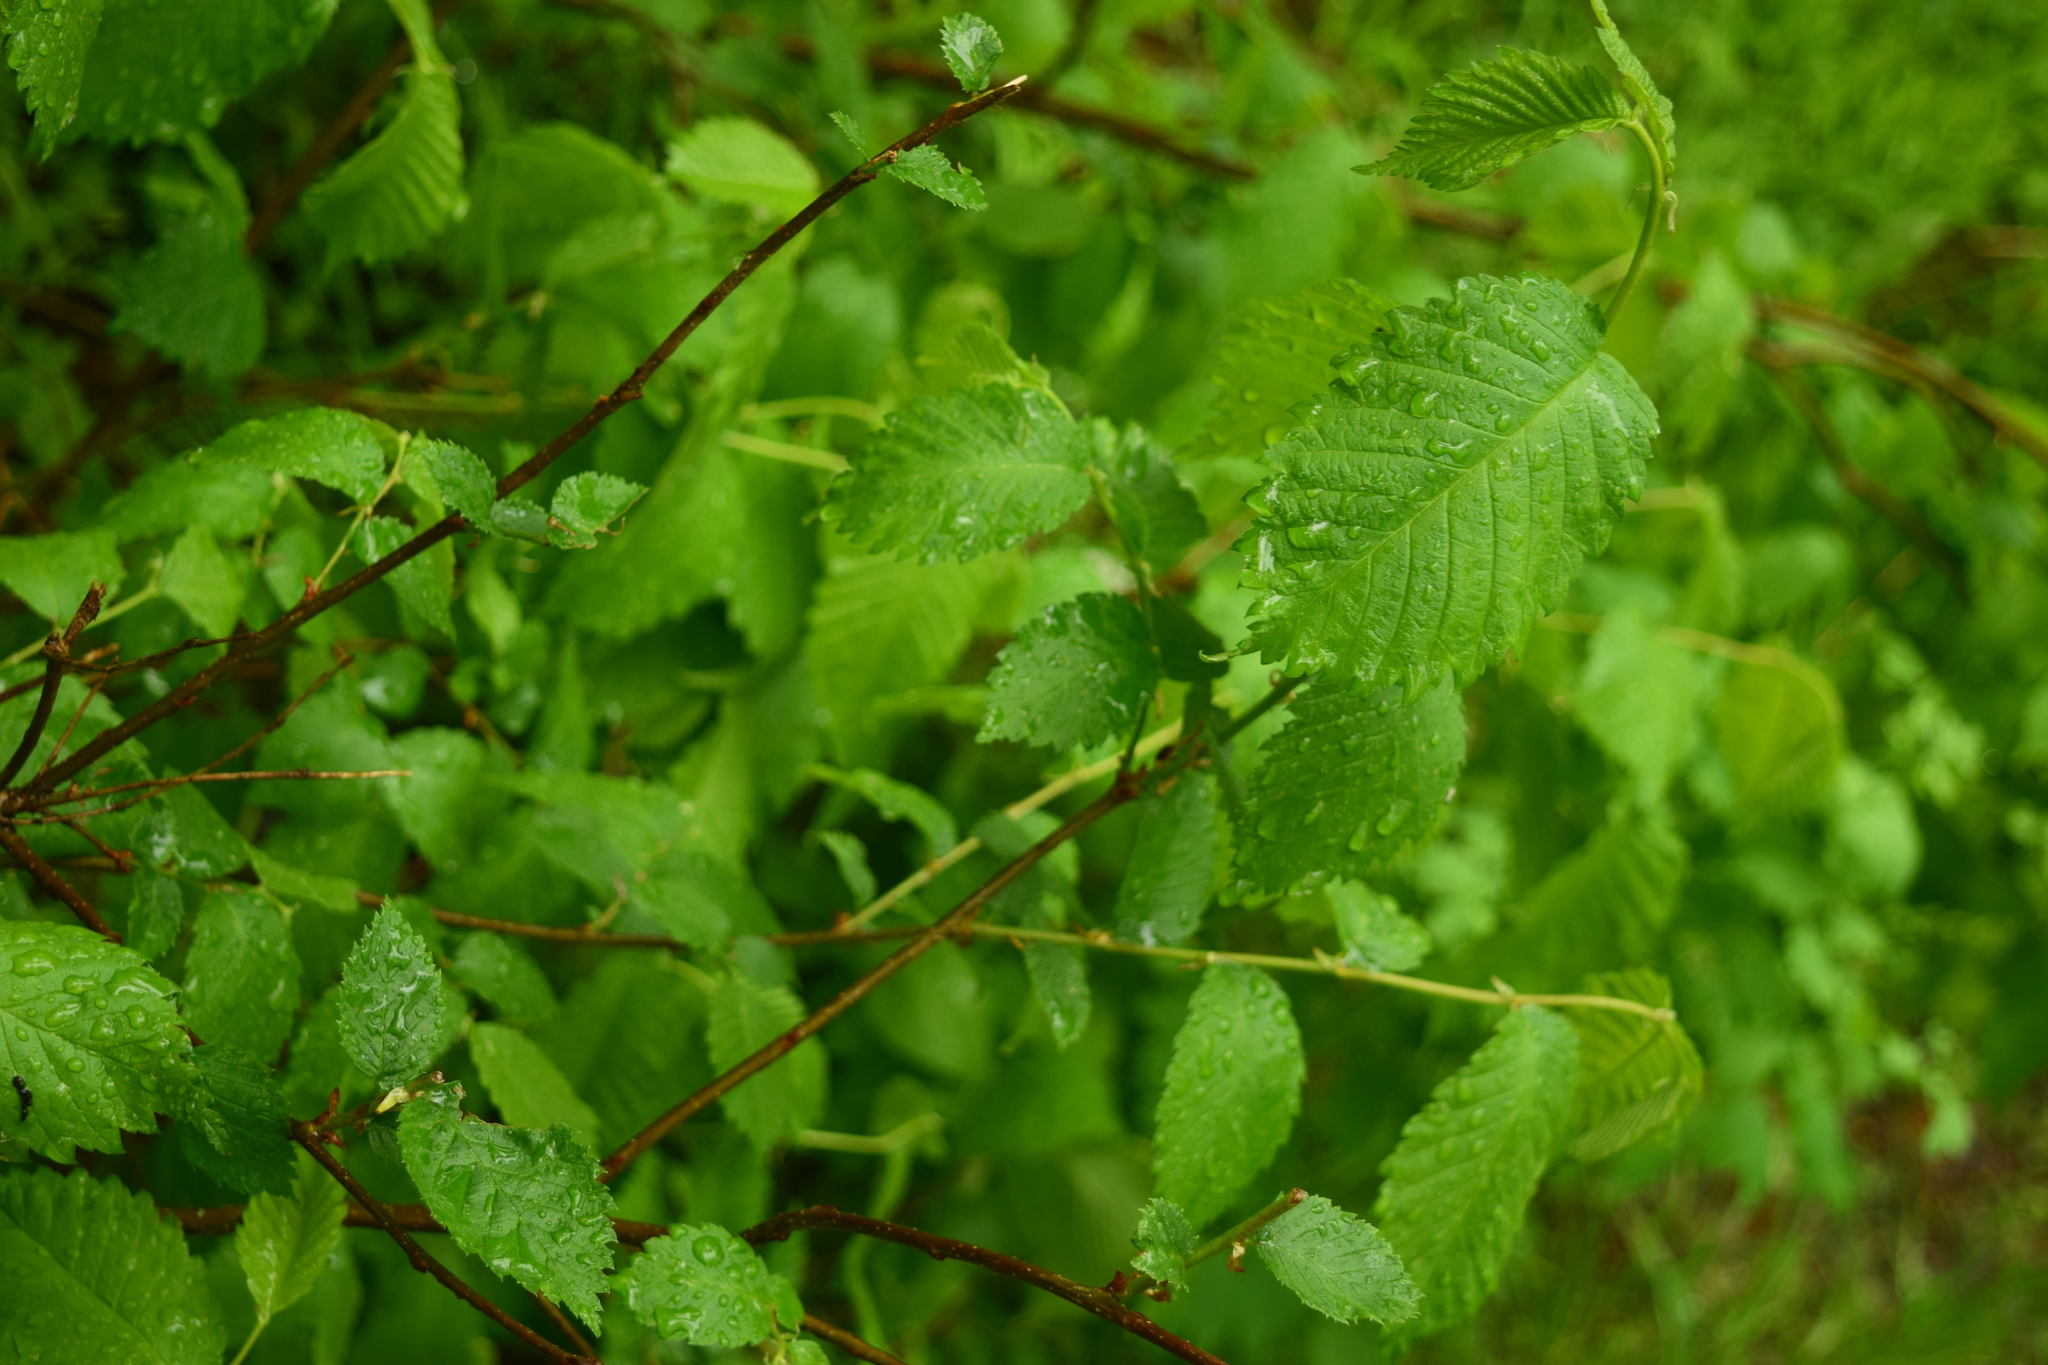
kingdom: Plantae
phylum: Tracheophyta
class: Magnoliopsida
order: Rosales
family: Ulmaceae
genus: Ulmus
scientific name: Ulmus glabra
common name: Wych elm
